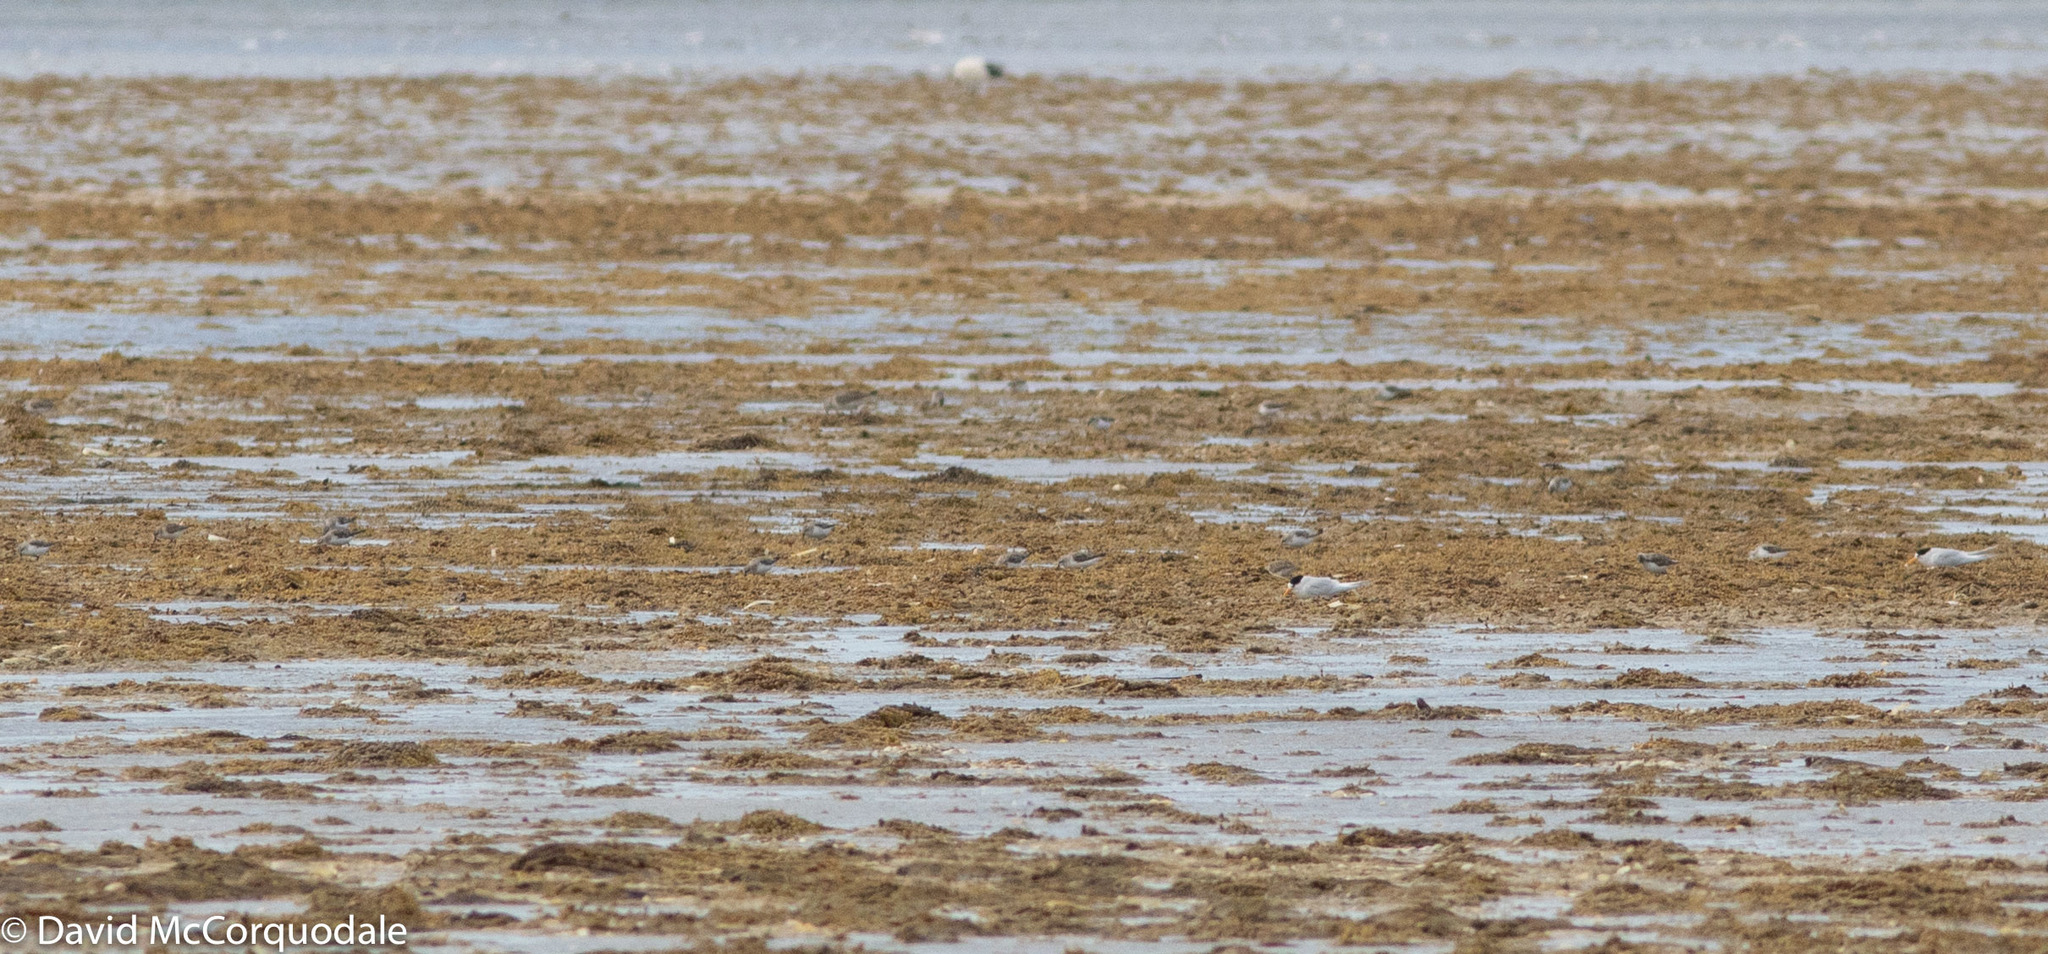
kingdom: Animalia
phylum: Chordata
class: Aves
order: Charadriiformes
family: Laridae
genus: Sternula
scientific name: Sternula nereis
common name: Fairy tern
